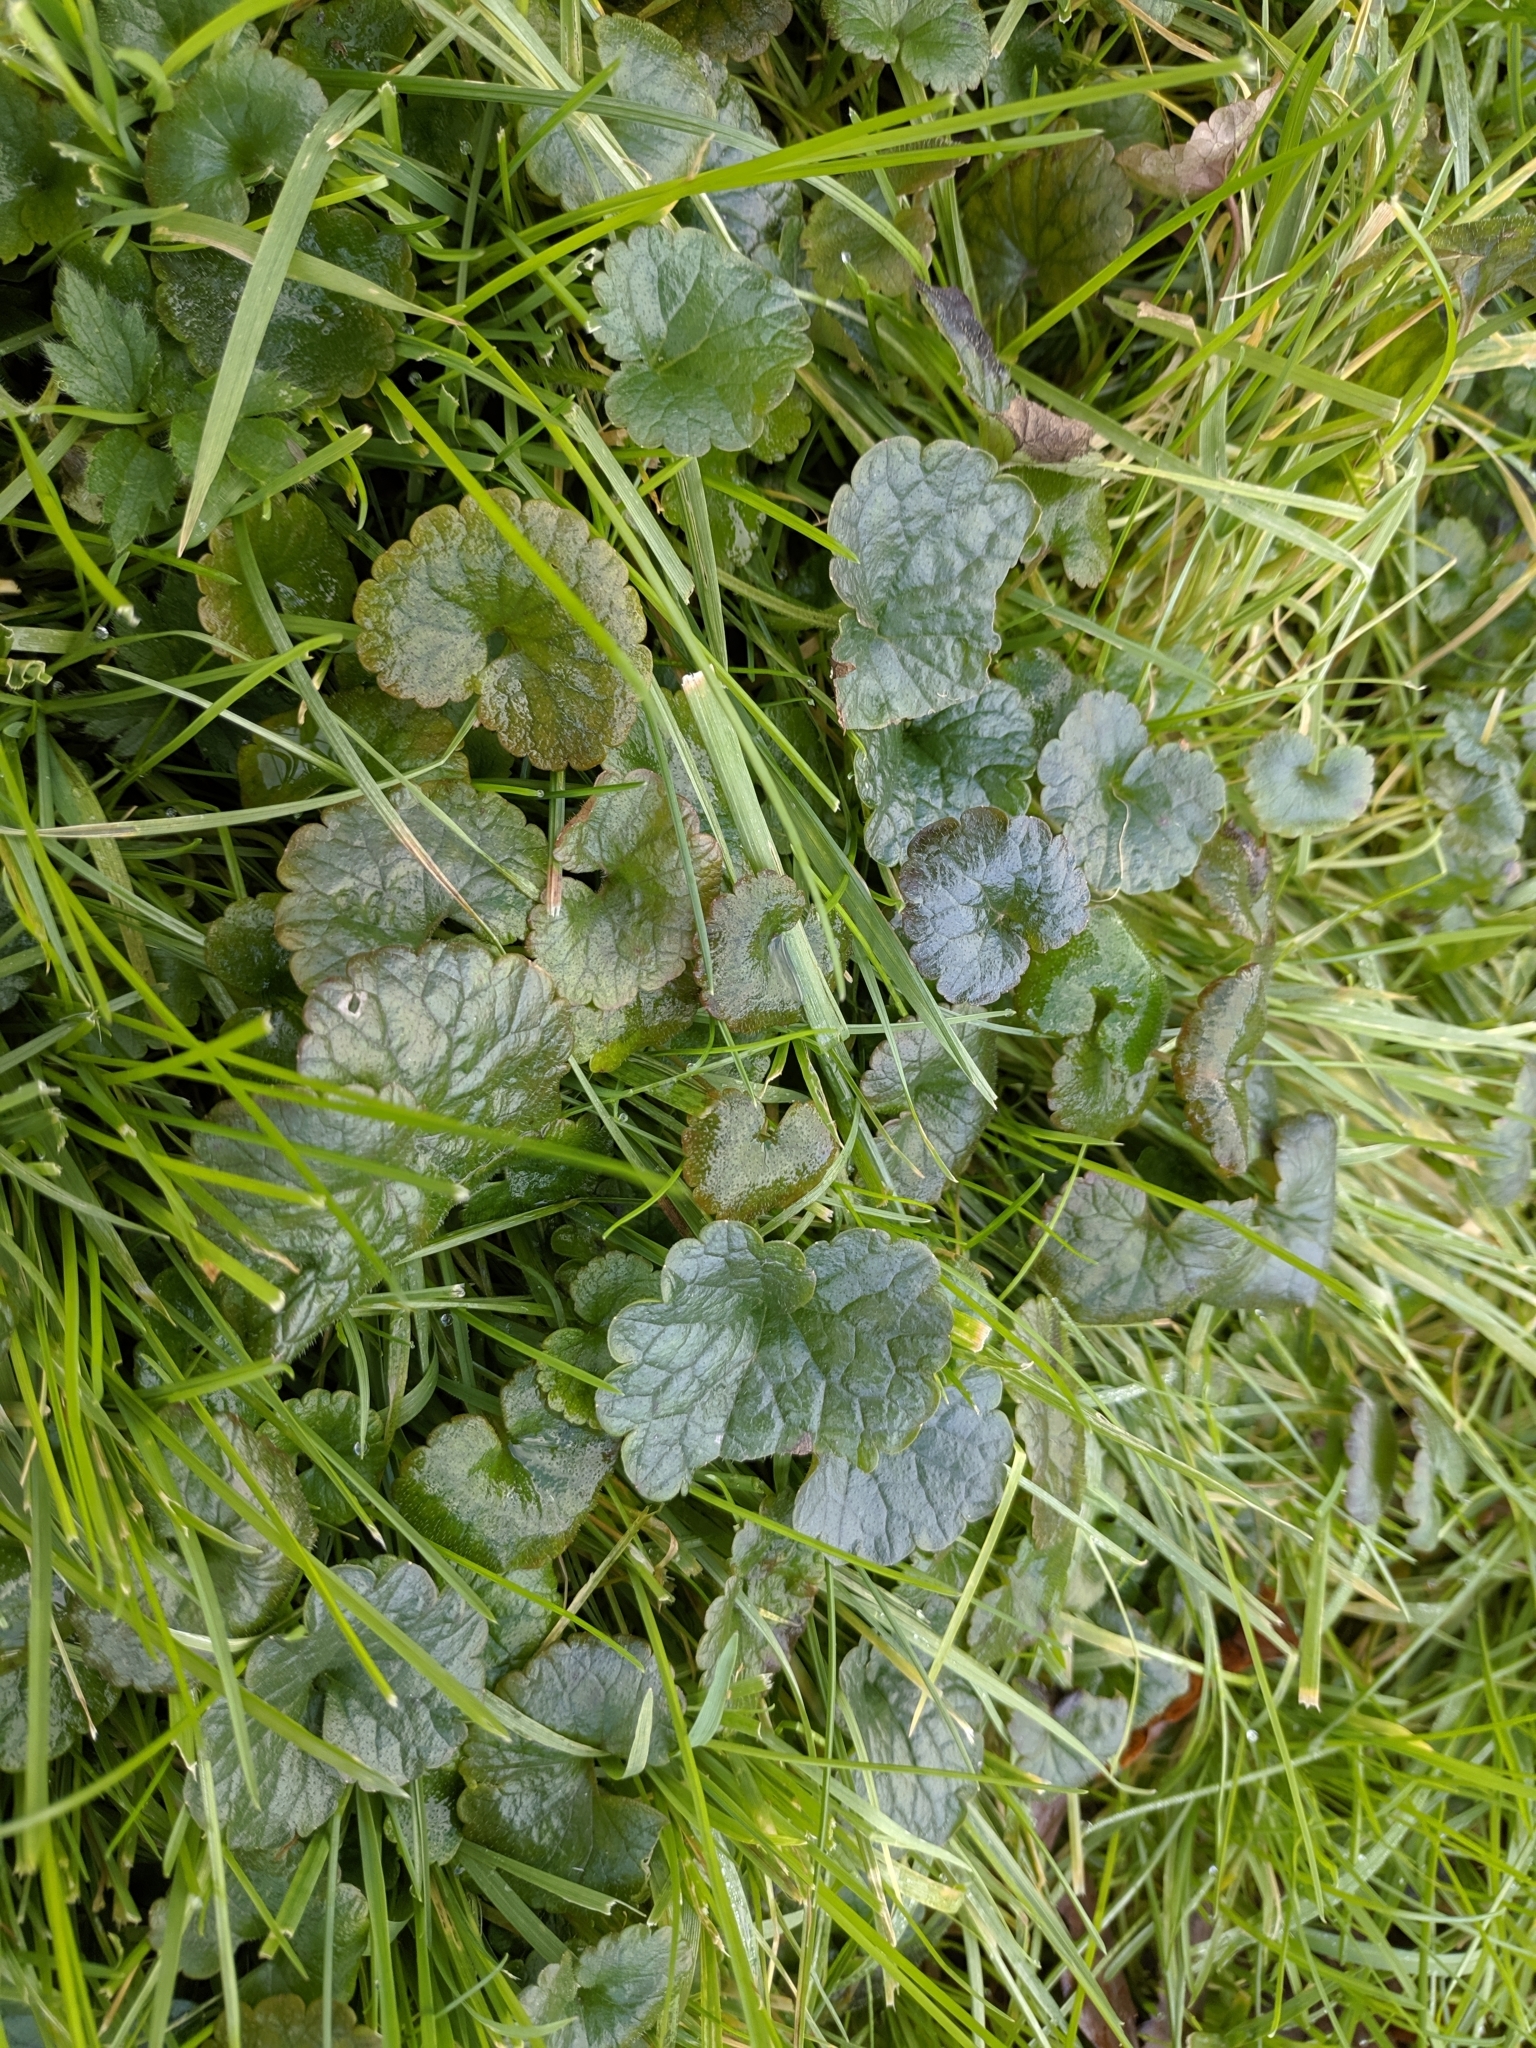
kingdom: Plantae
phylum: Tracheophyta
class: Magnoliopsida
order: Lamiales
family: Lamiaceae
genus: Glechoma
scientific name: Glechoma hederacea
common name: Ground ivy
